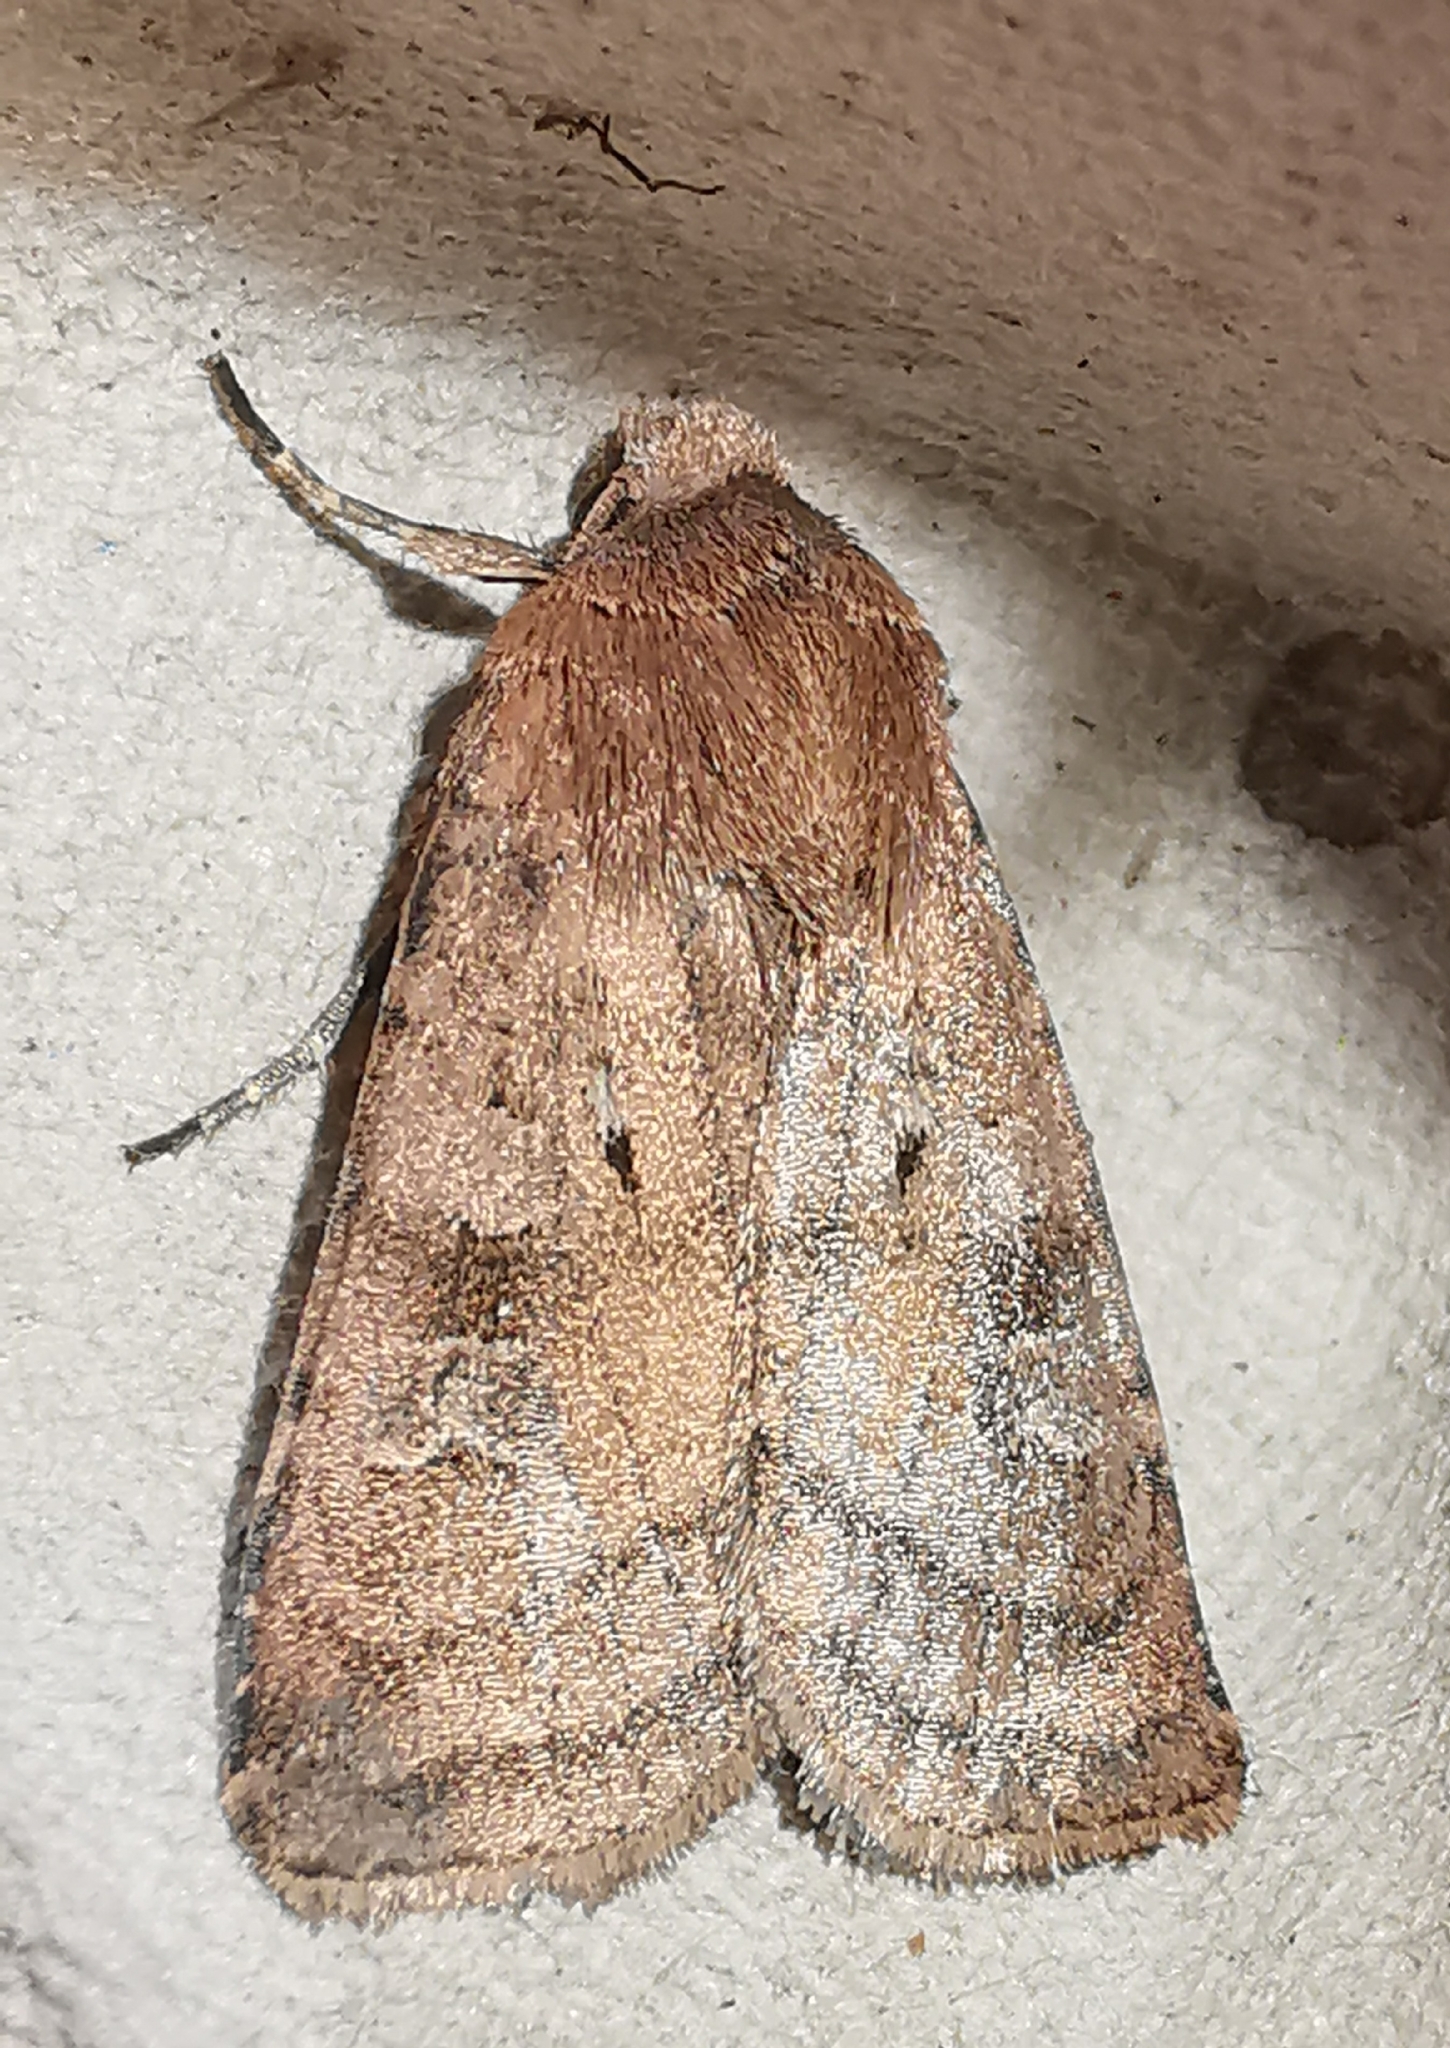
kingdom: Animalia
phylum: Arthropoda
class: Insecta
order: Lepidoptera
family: Noctuidae
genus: Hoplodrina
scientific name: Hoplodrina octogenaria
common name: Uncertain
